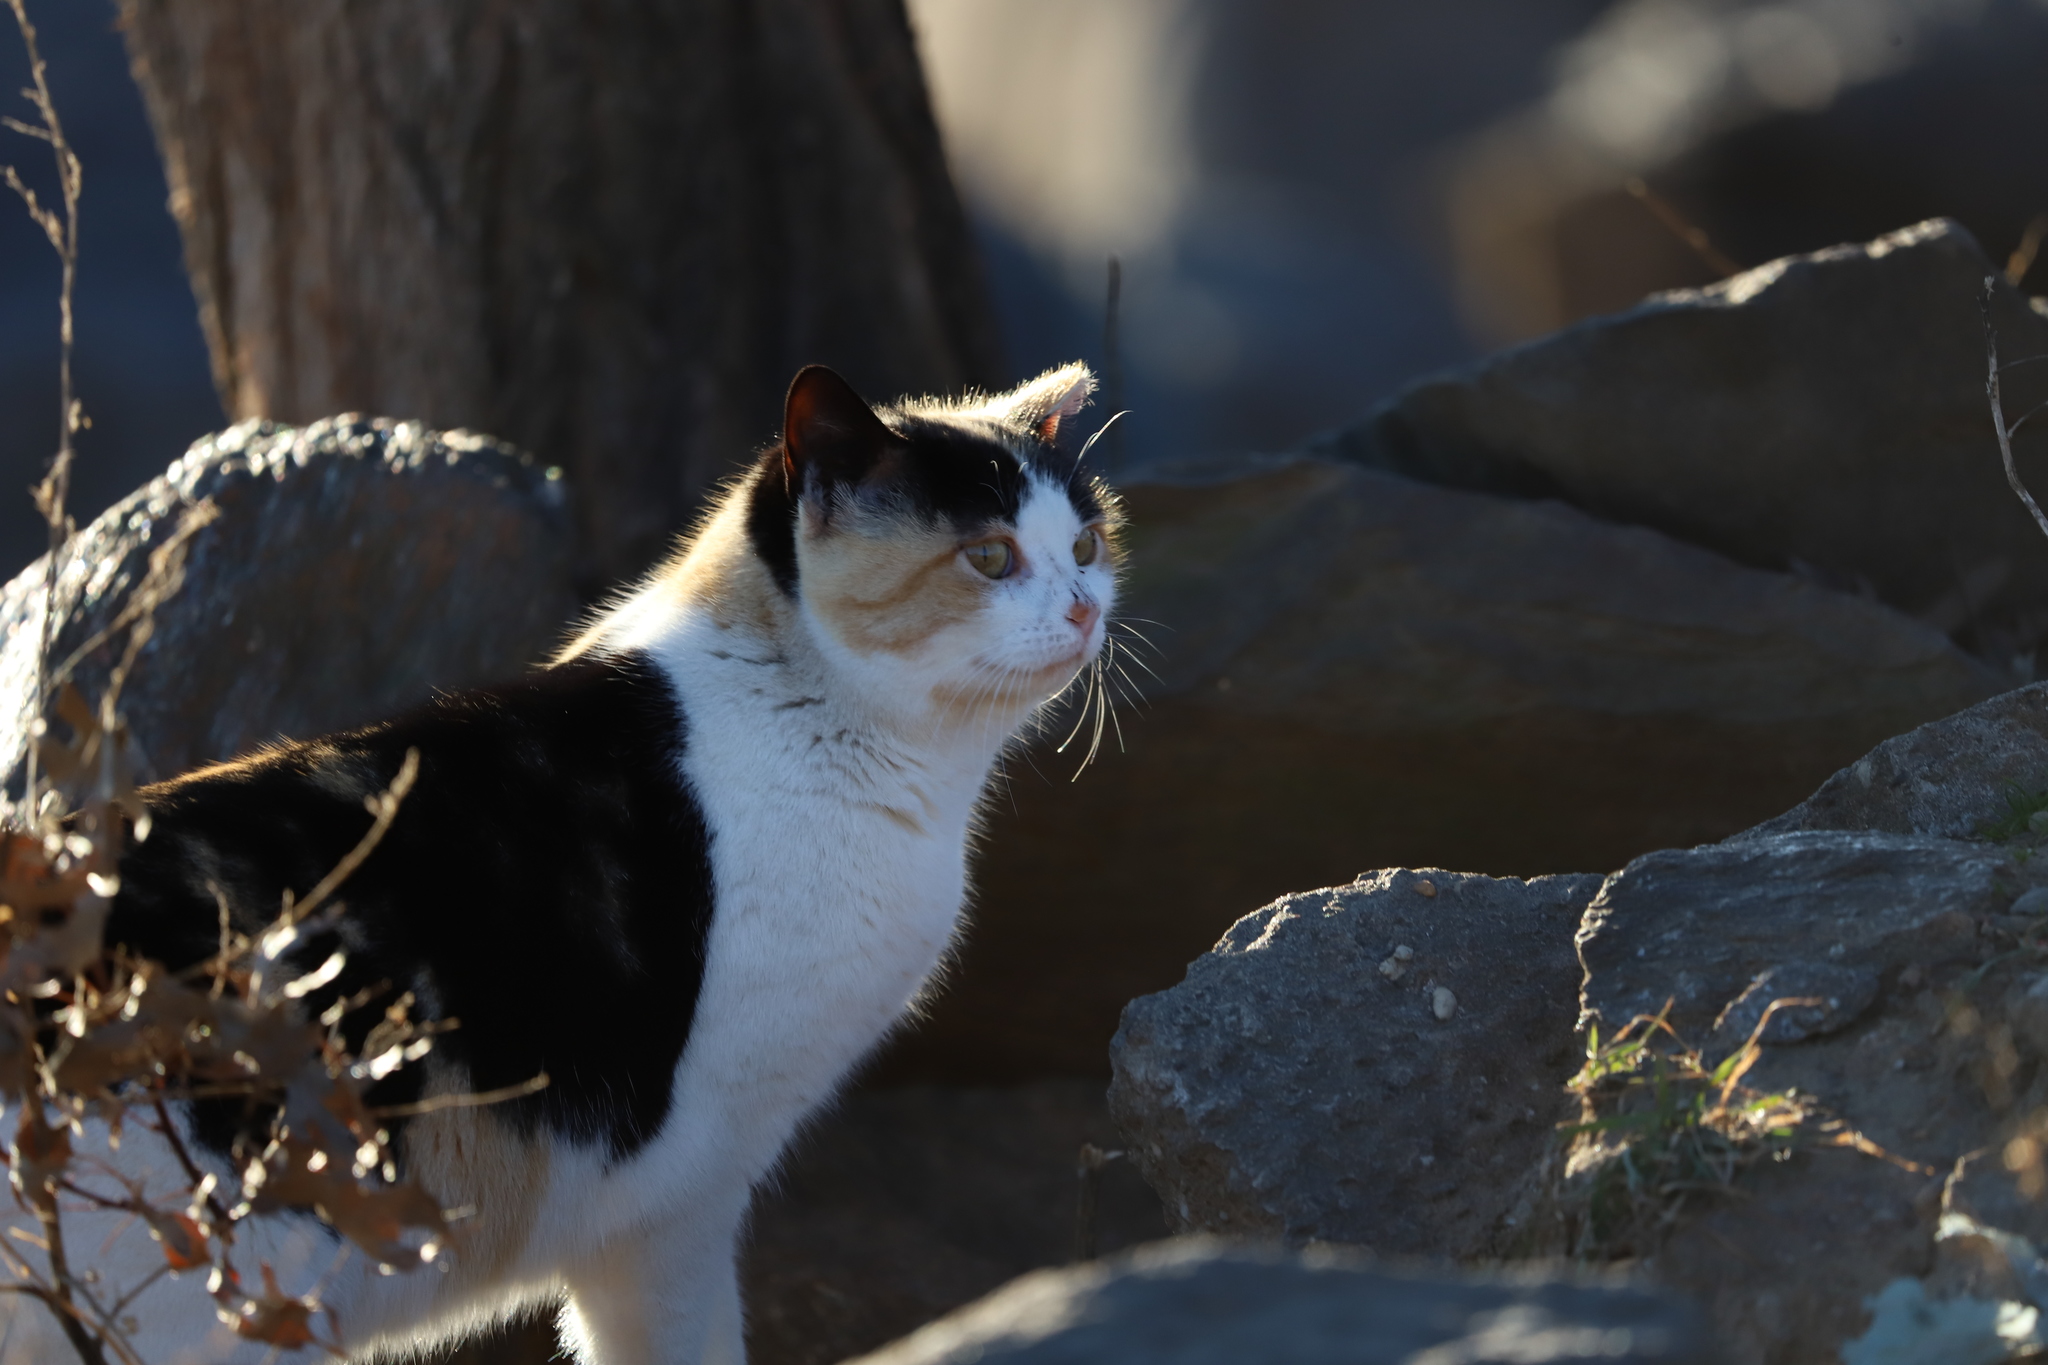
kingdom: Animalia
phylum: Chordata
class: Mammalia
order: Carnivora
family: Felidae
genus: Felis
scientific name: Felis catus
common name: Domestic cat
